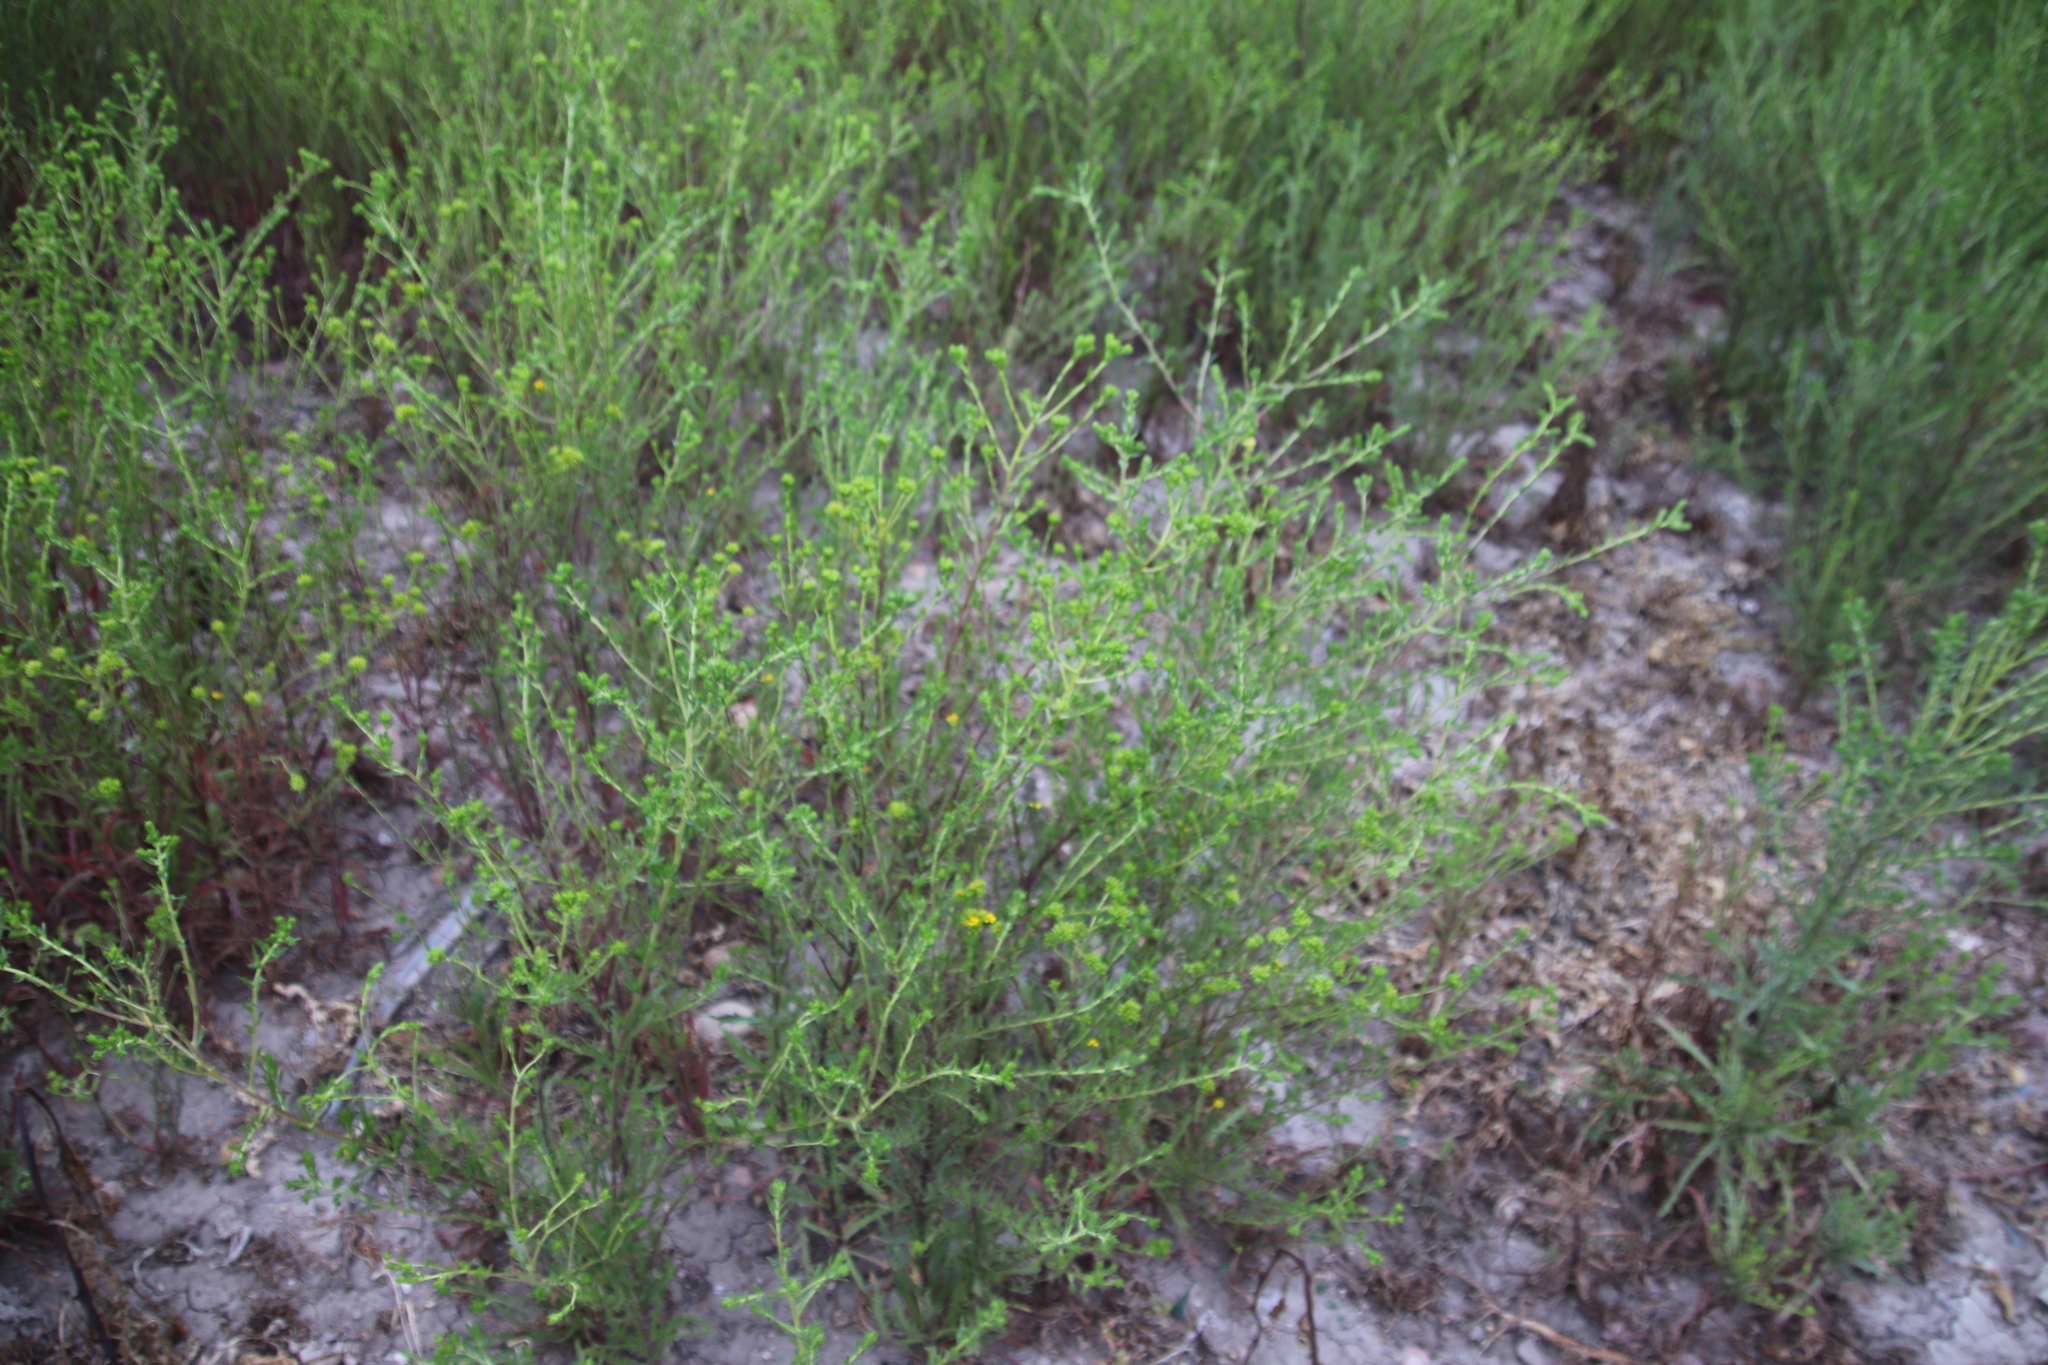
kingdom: Plantae
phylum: Tracheophyta
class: Magnoliopsida
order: Asterales
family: Asteraceae
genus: Deinandra
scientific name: Deinandra fasciculata
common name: Clustered tarweed
